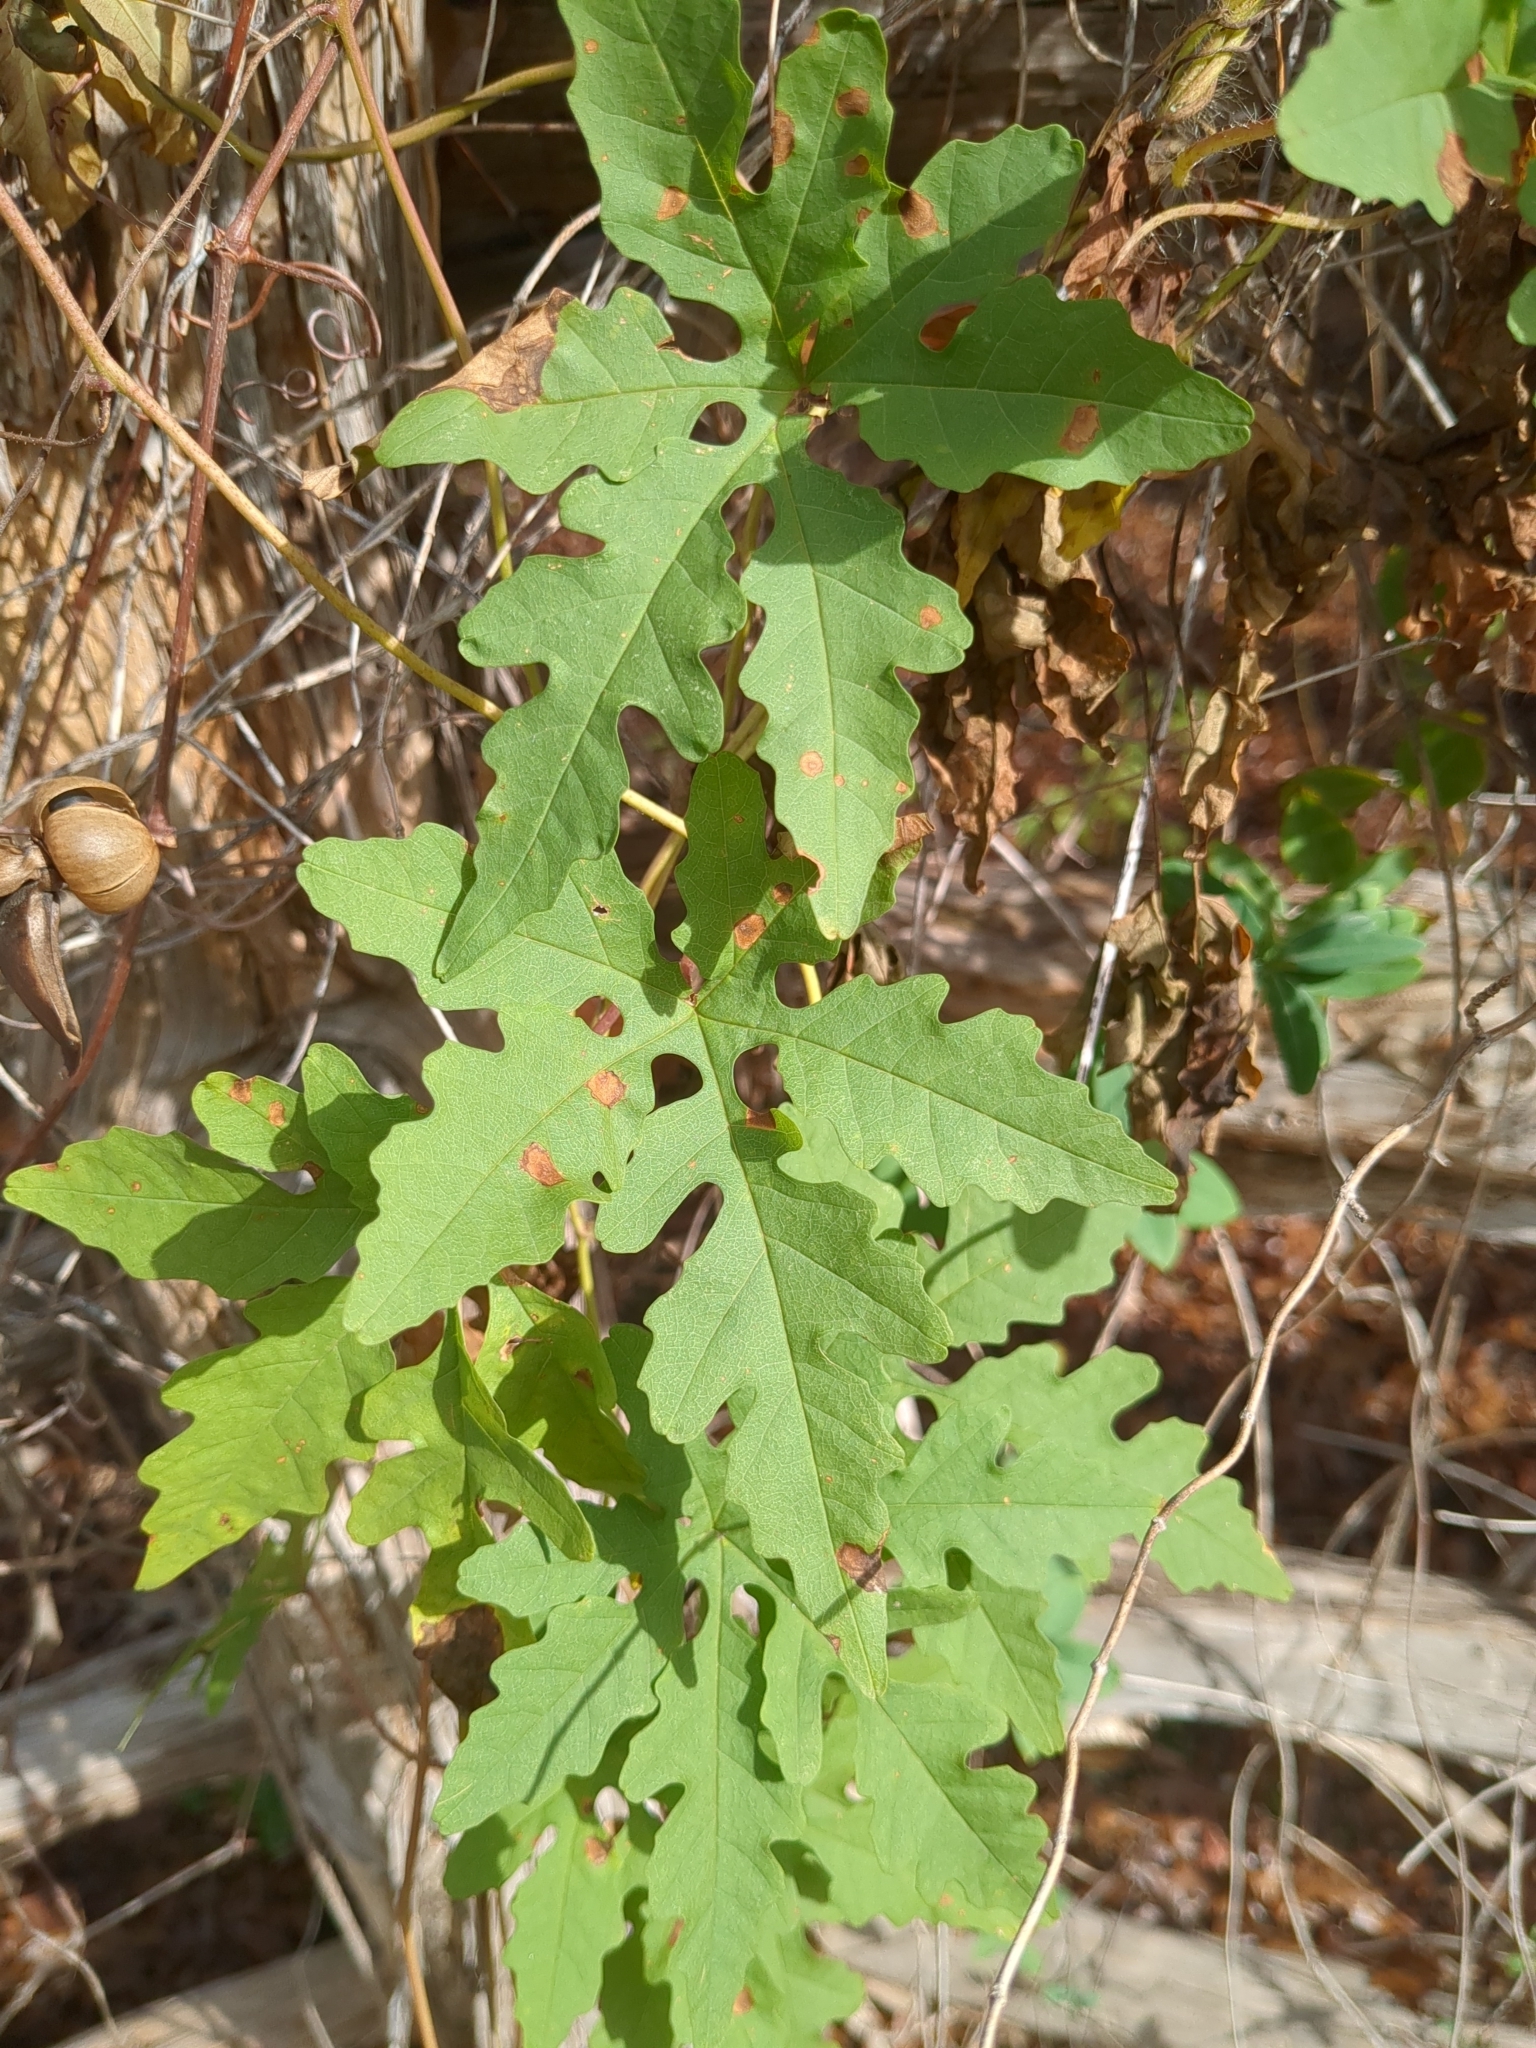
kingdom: Plantae
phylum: Tracheophyta
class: Magnoliopsida
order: Solanales
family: Convolvulaceae
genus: Distimake
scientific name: Distimake dissectus
